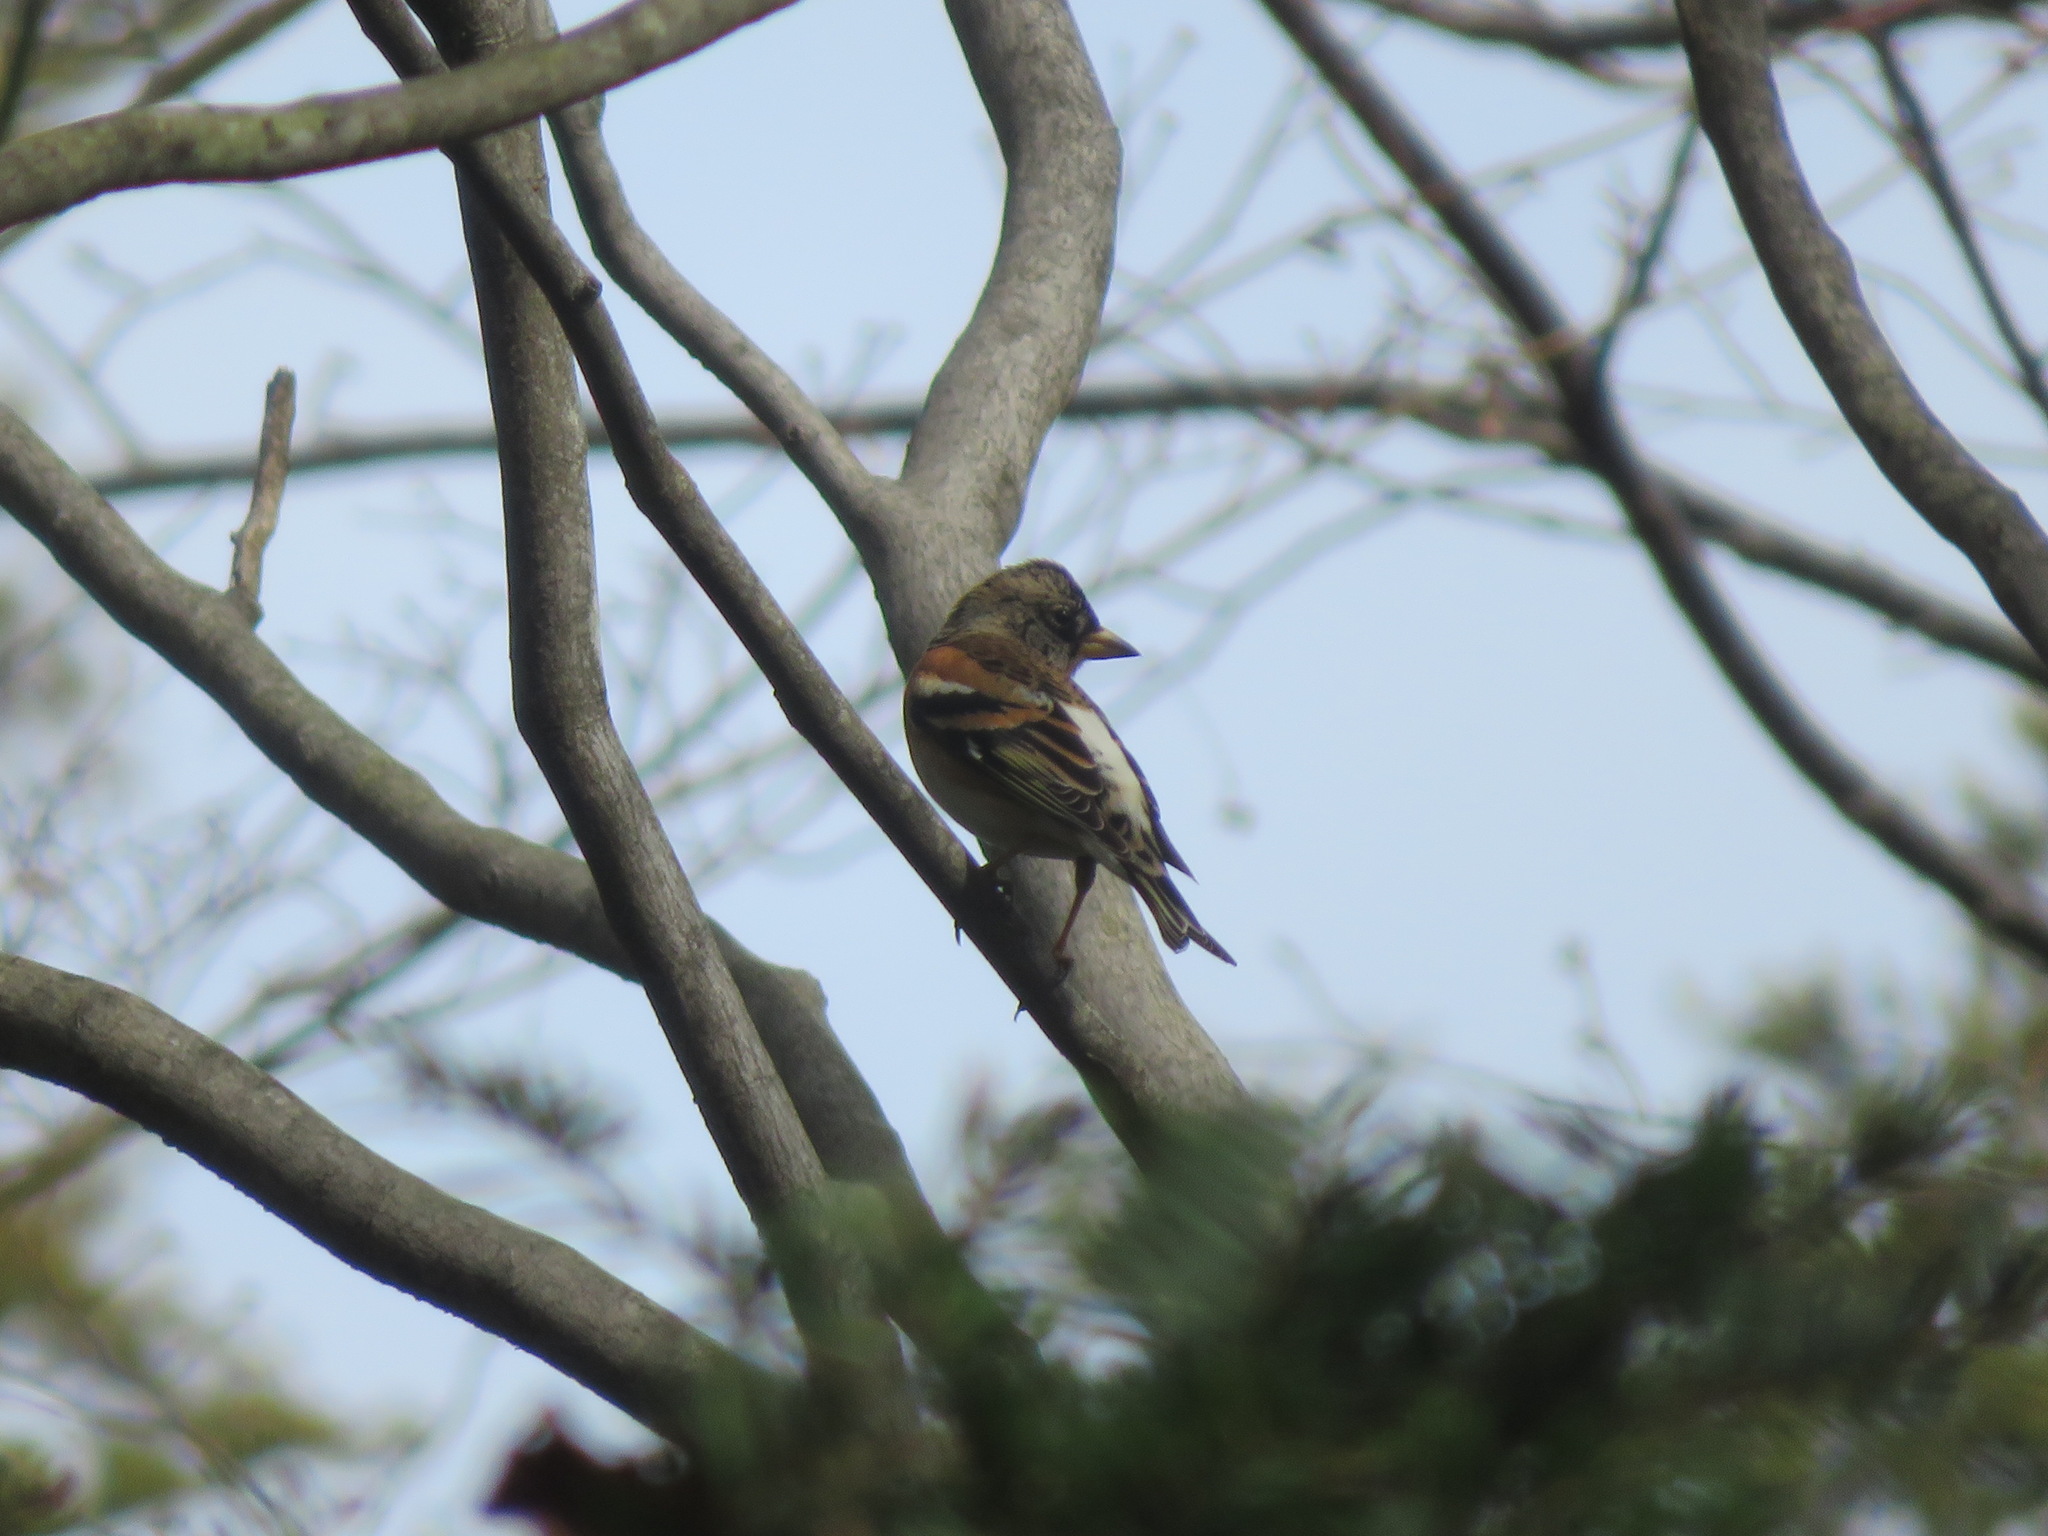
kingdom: Animalia
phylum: Chordata
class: Aves
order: Passeriformes
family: Fringillidae
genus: Fringilla
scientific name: Fringilla montifringilla
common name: Brambling
